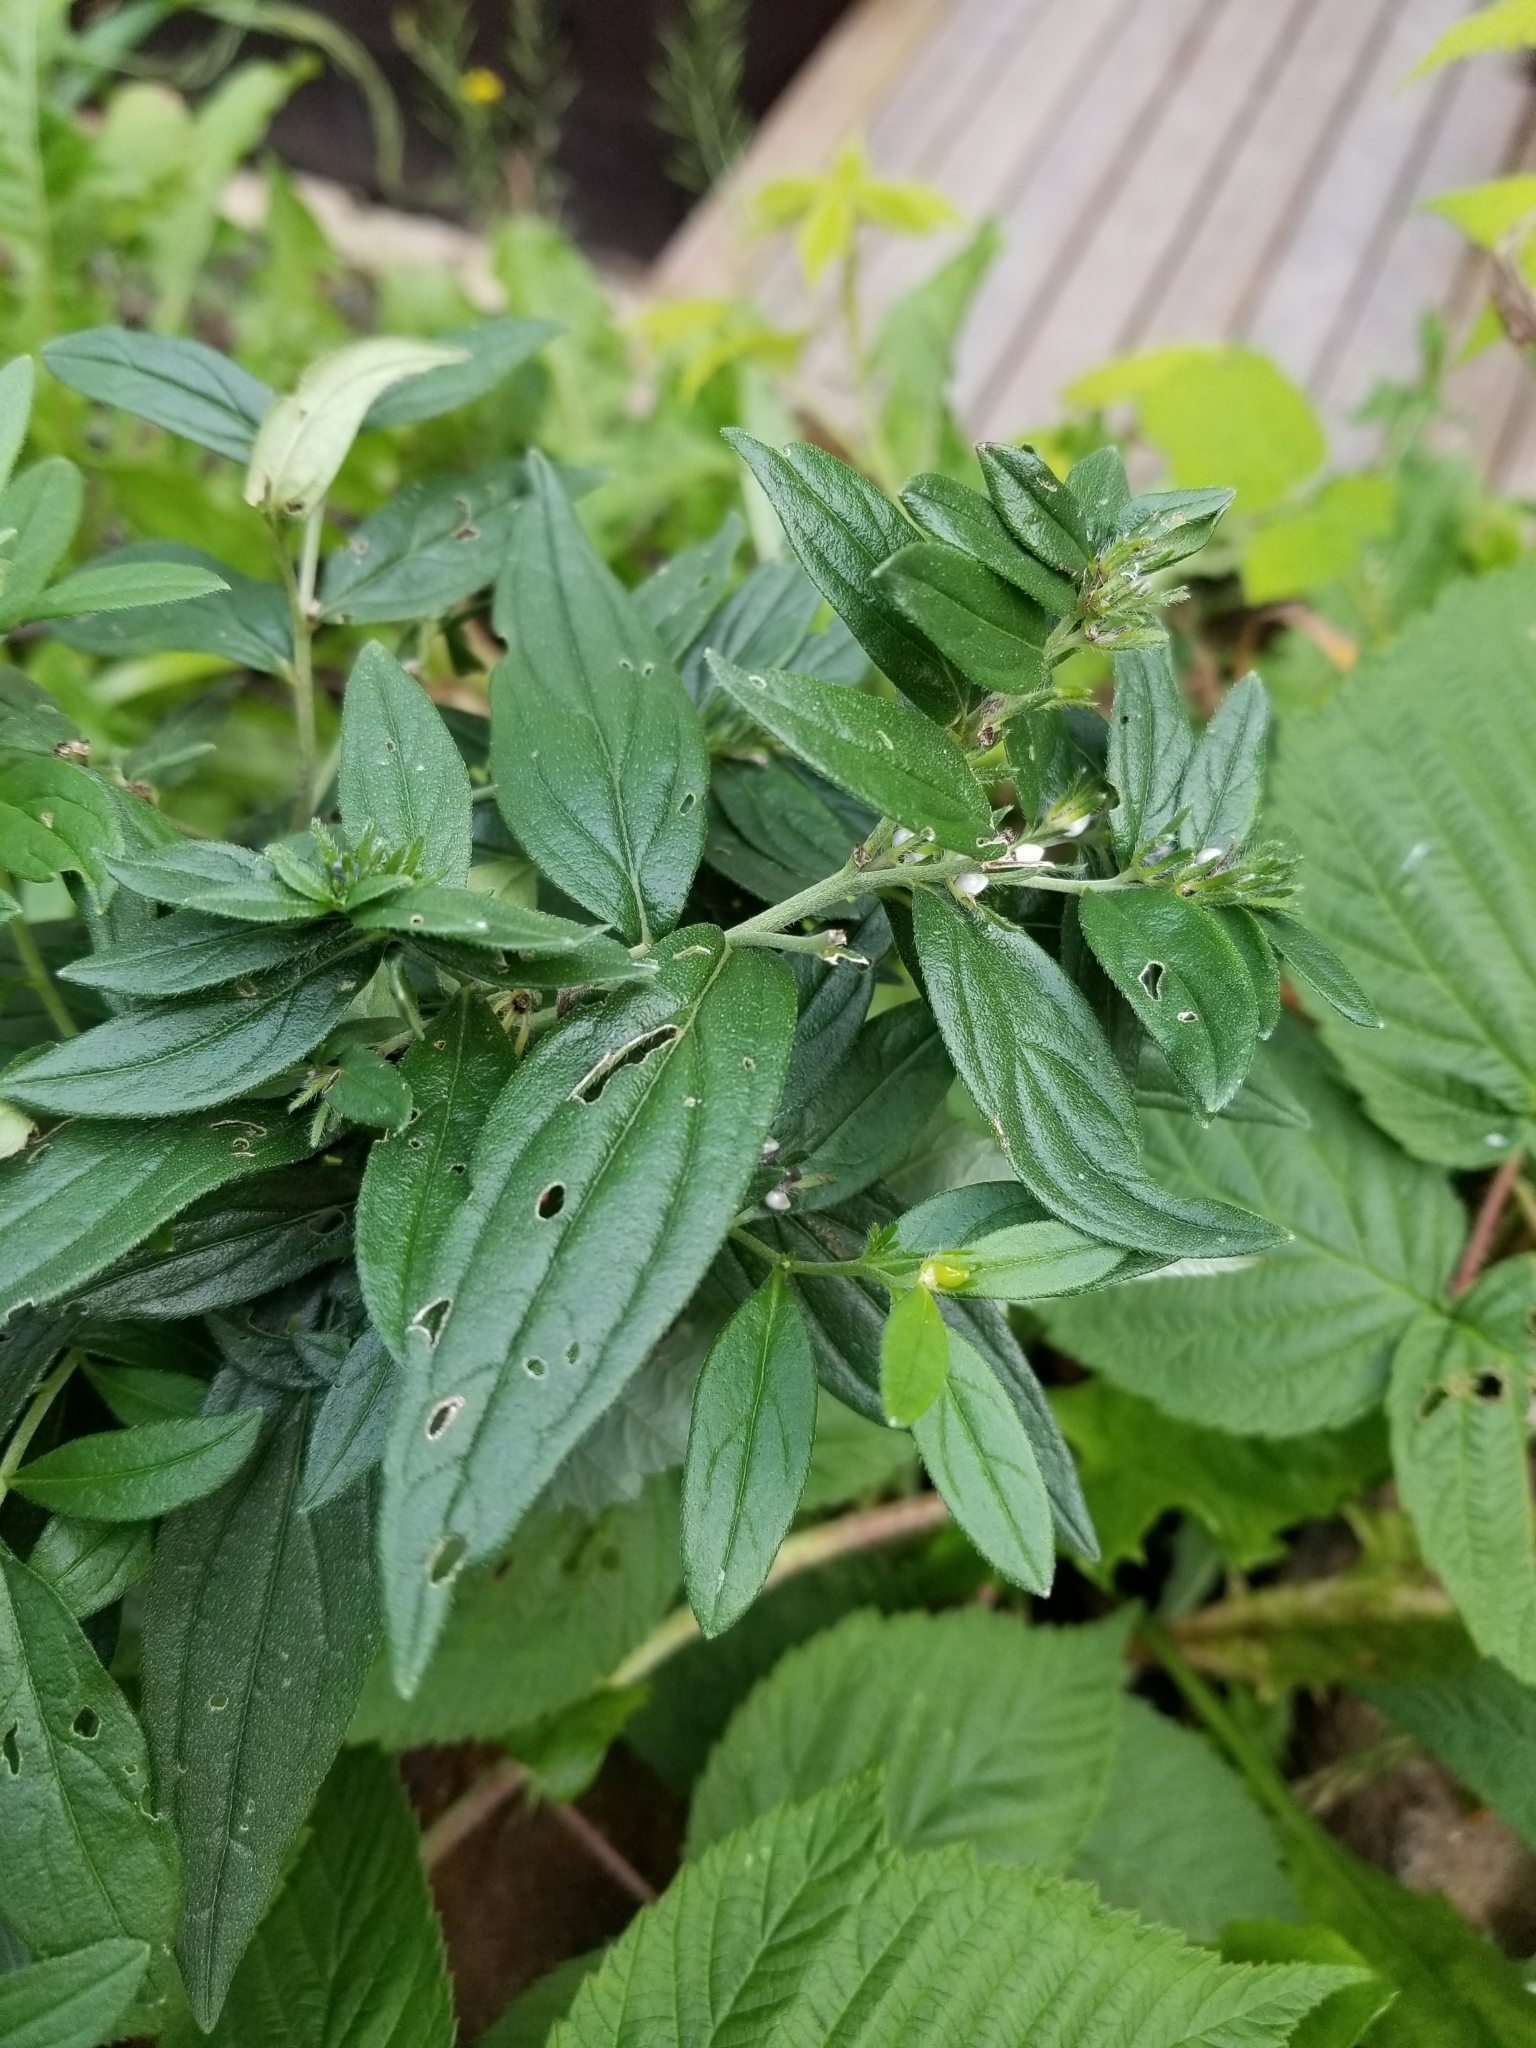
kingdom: Plantae
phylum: Tracheophyta
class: Magnoliopsida
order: Boraginales
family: Boraginaceae
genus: Lithospermum
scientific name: Lithospermum officinale
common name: Common gromwell
